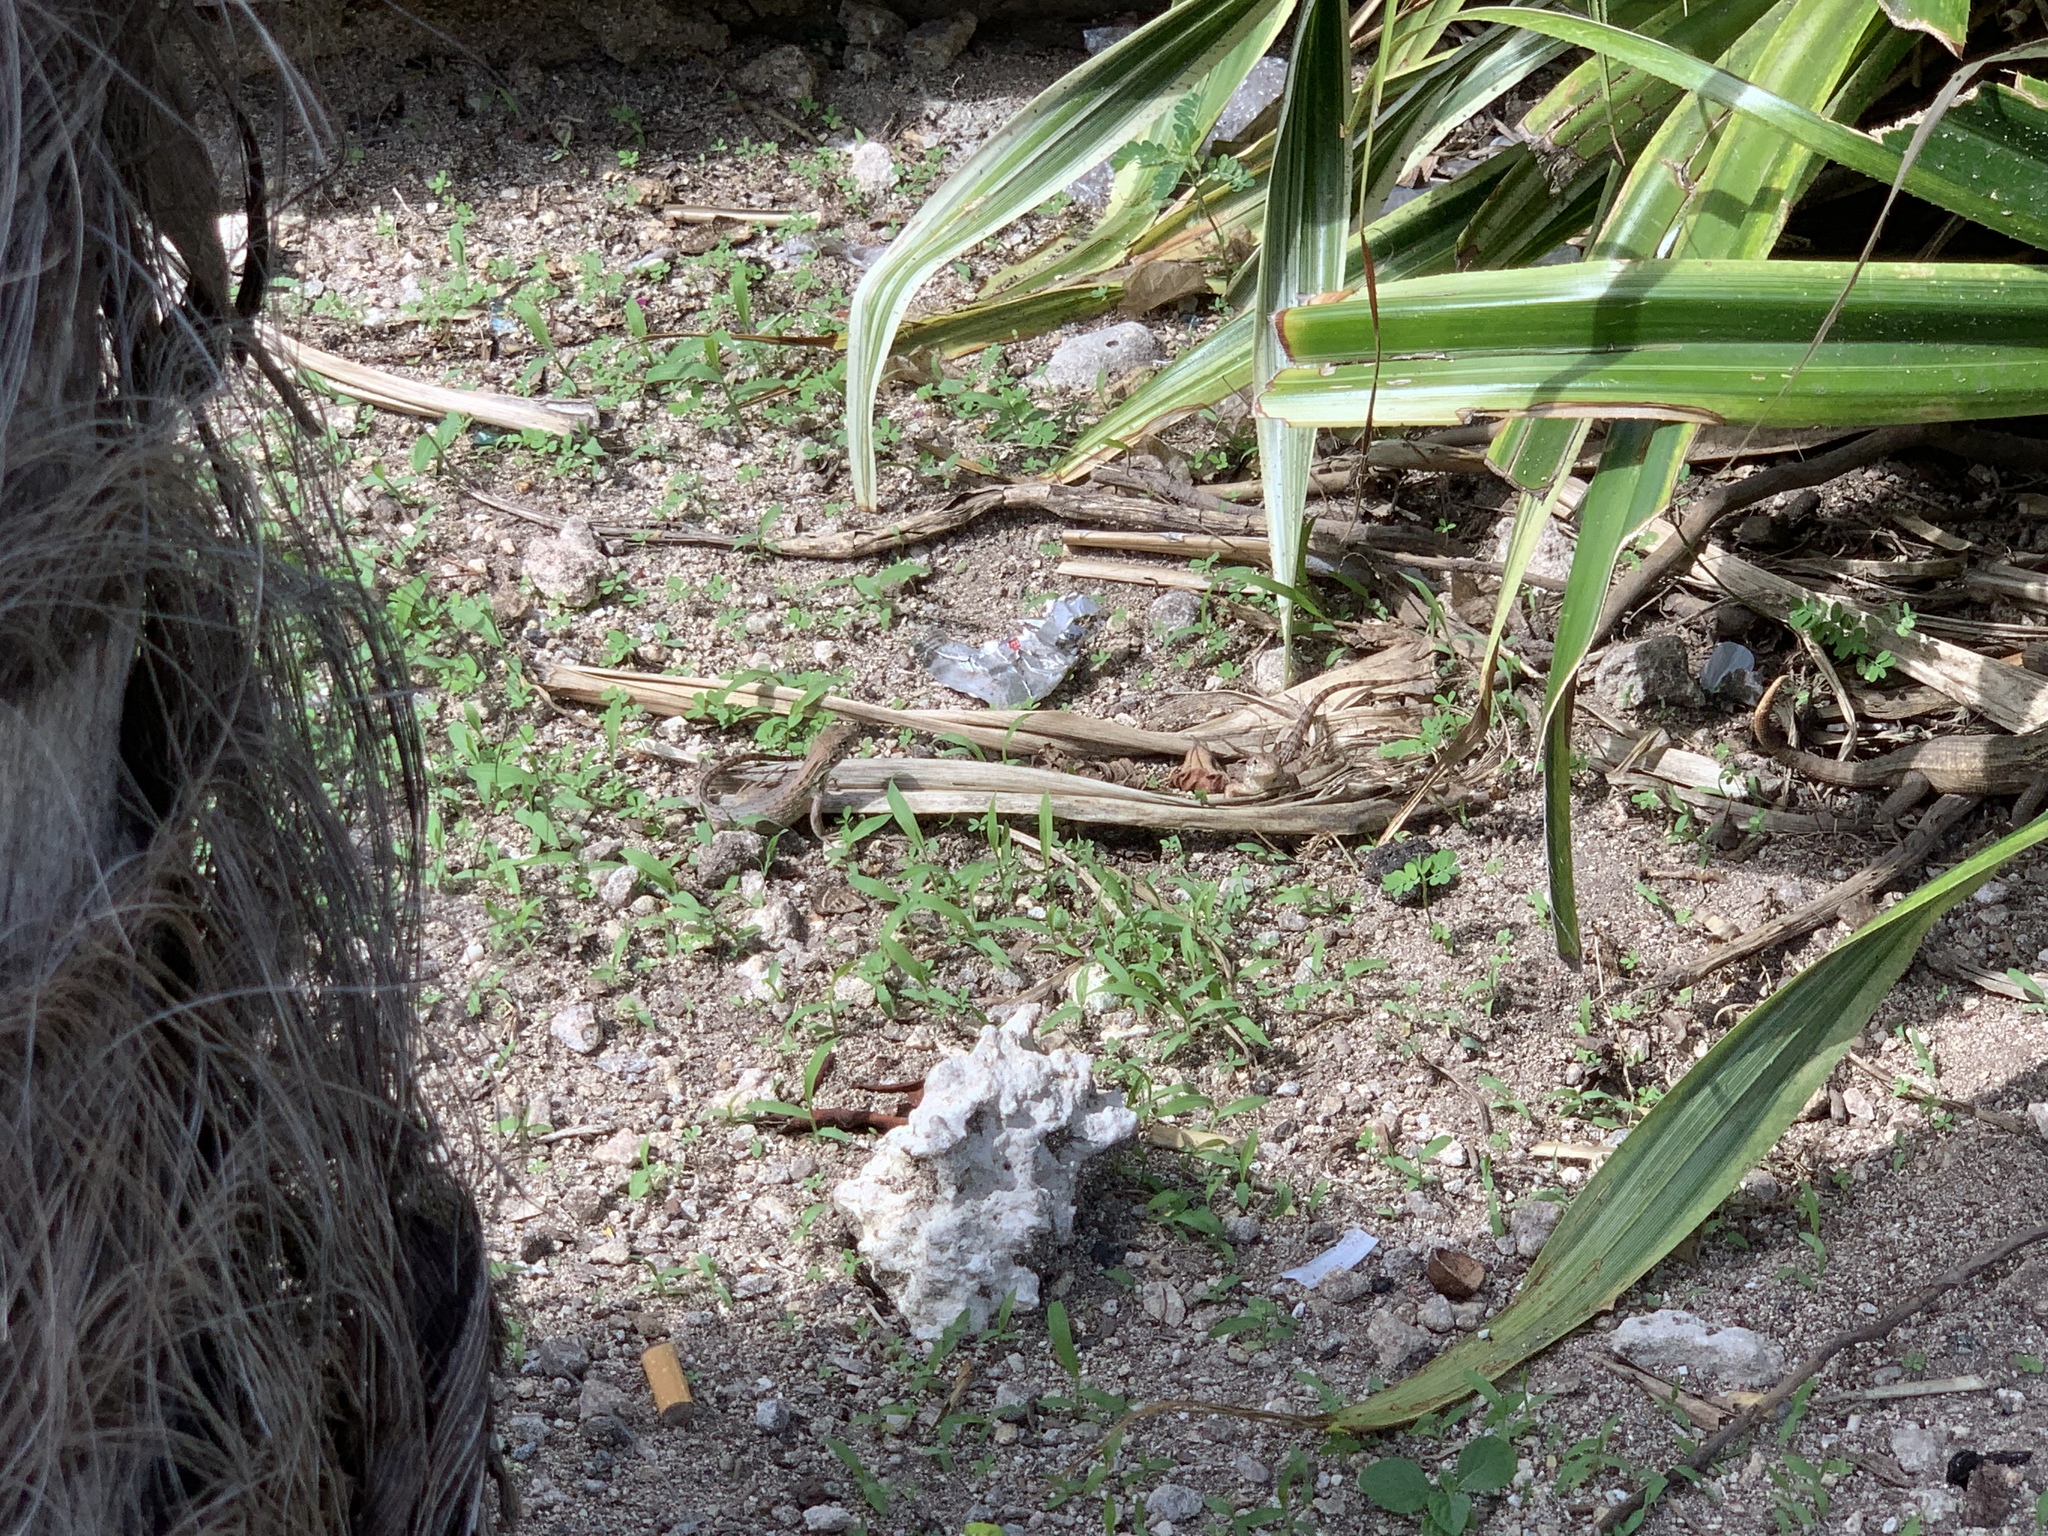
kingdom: Animalia
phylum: Chordata
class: Squamata
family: Leiocephalidae
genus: Leiocephalus
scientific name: Leiocephalus carinatus
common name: Northern curly-tailed lizard
